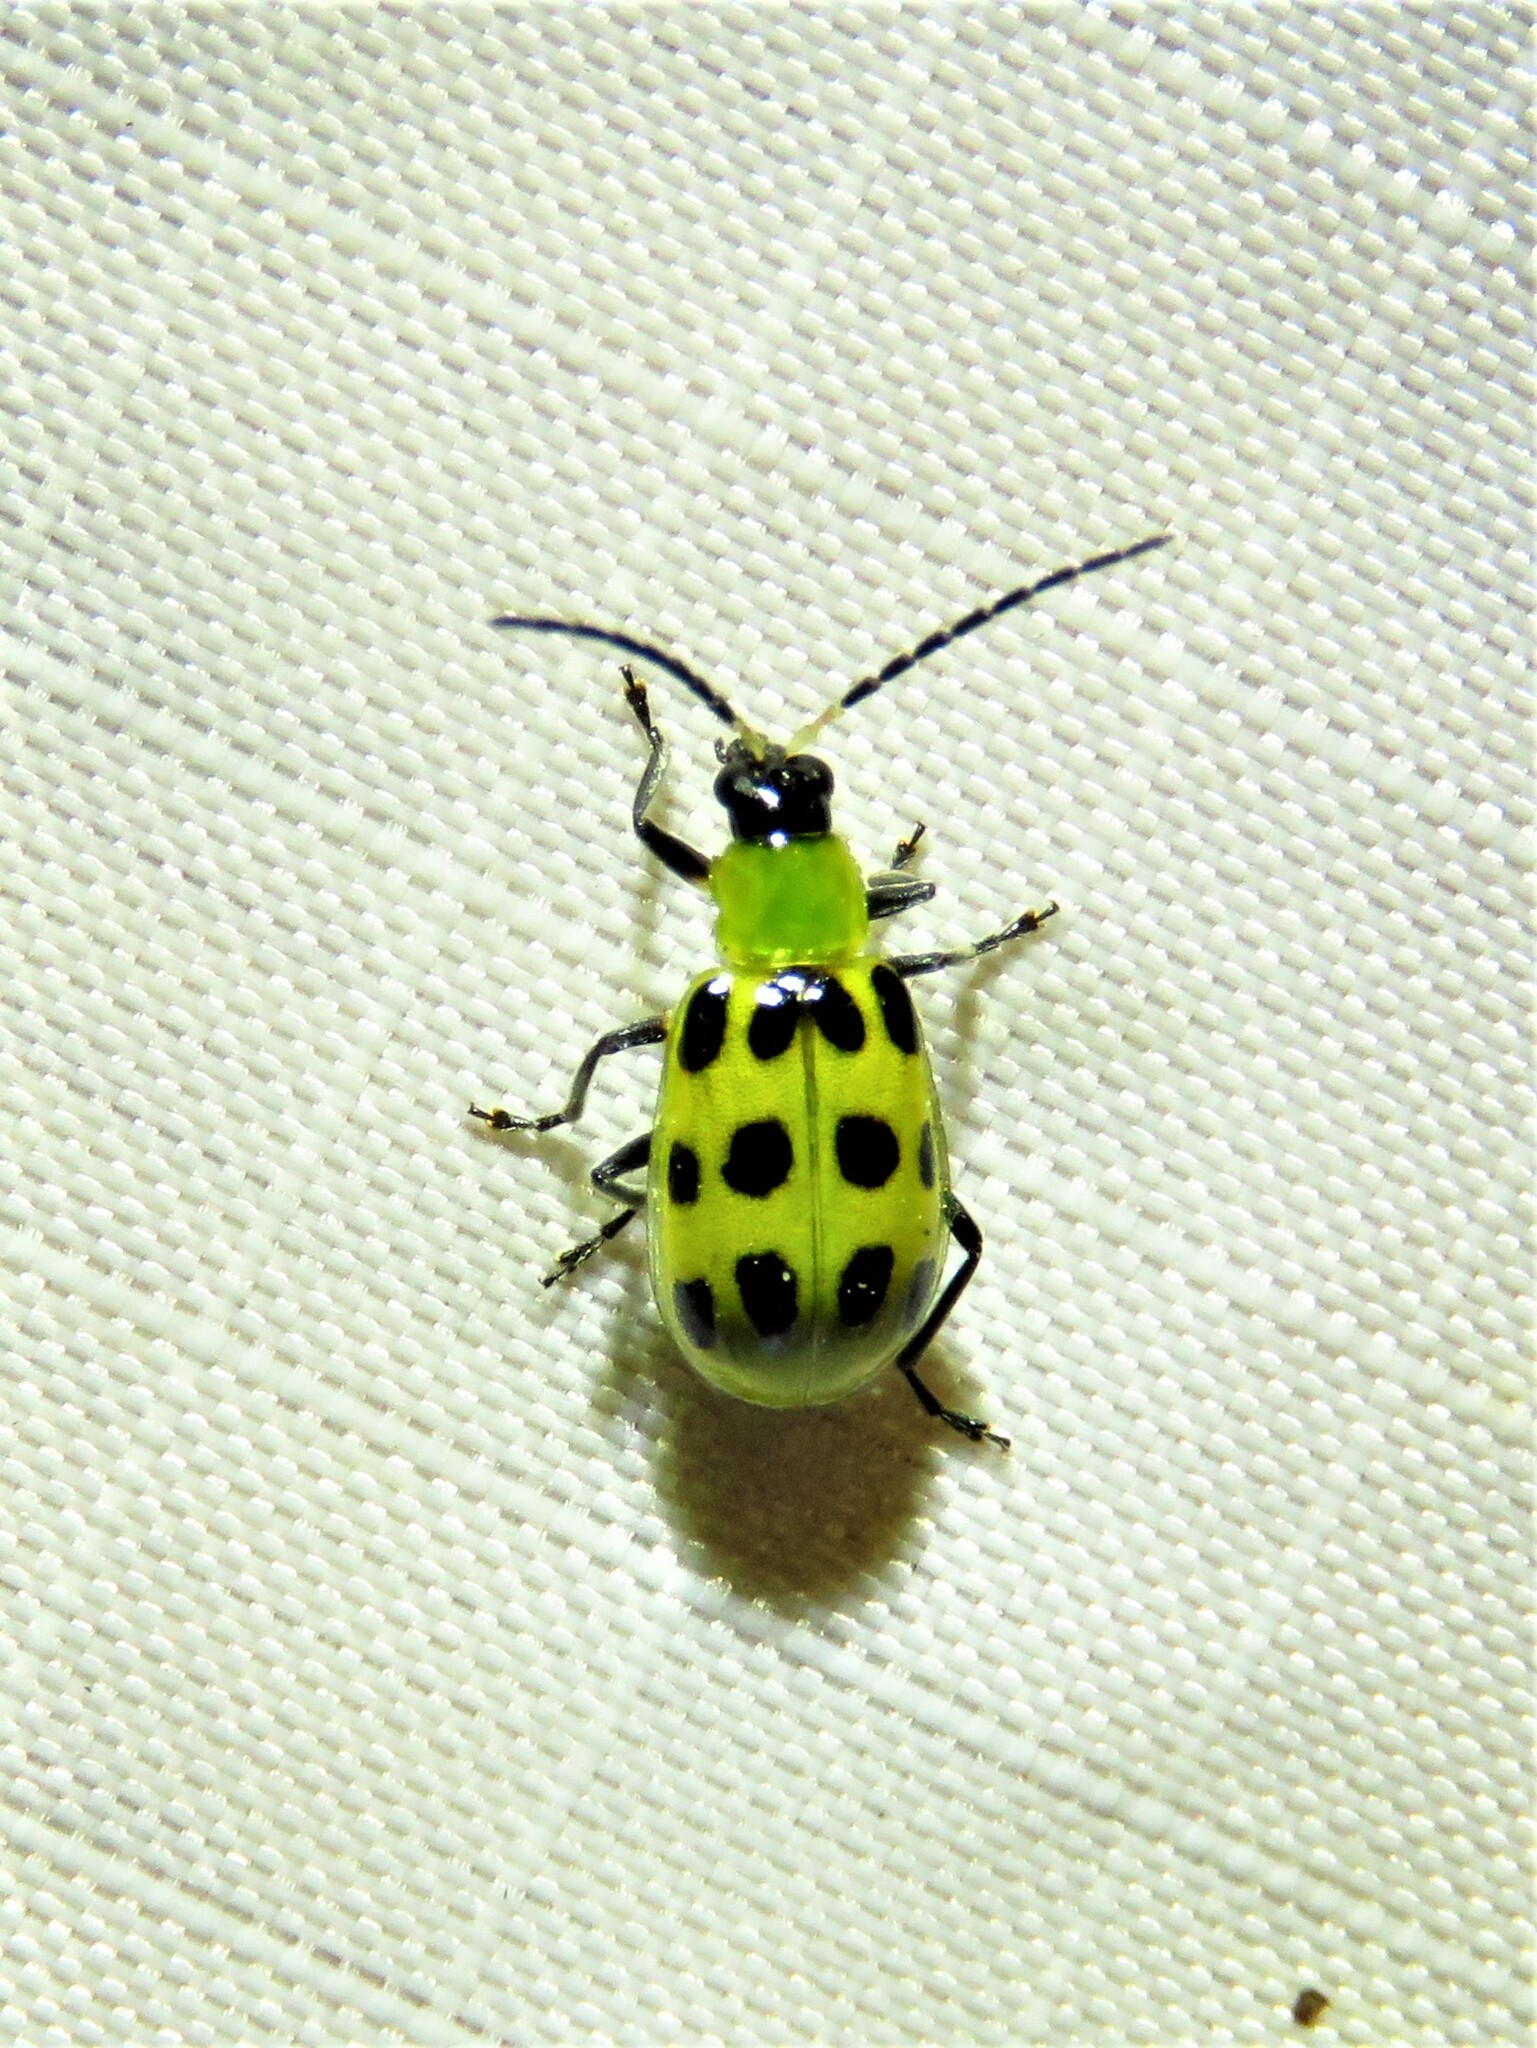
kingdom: Animalia
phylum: Arthropoda
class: Insecta
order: Coleoptera
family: Chrysomelidae
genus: Diabrotica
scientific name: Diabrotica undecimpunctata
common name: Spotted cucumber beetle
